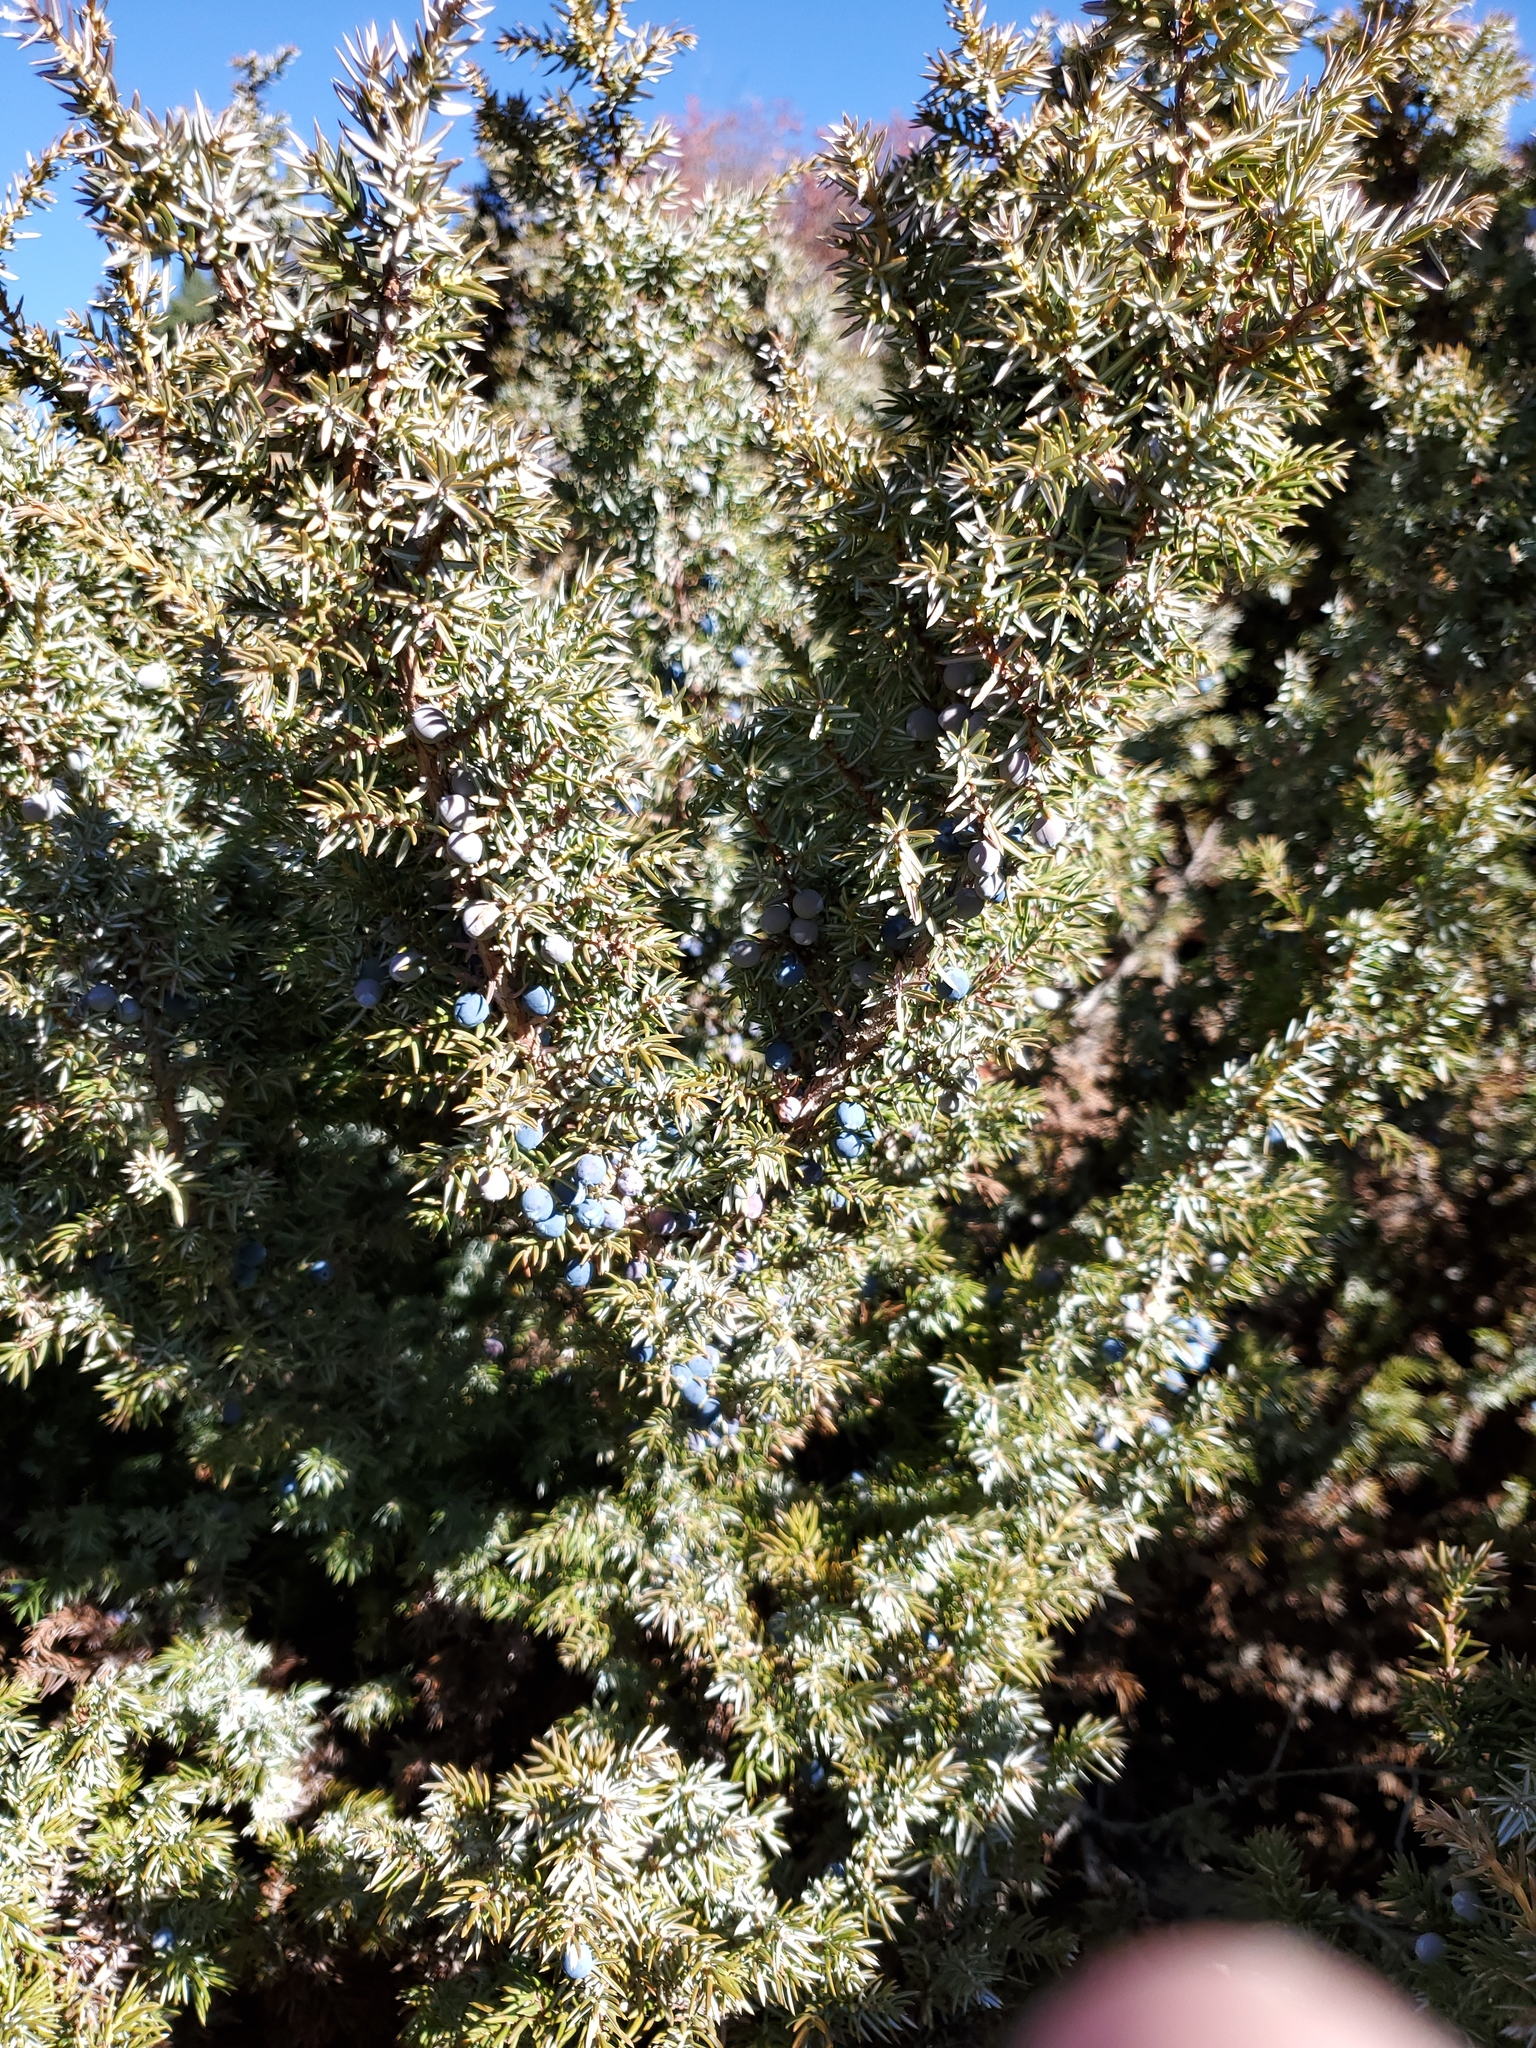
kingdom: Plantae
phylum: Tracheophyta
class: Pinopsida
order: Pinales
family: Cupressaceae
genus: Juniperus
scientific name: Juniperus communis
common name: Common juniper
